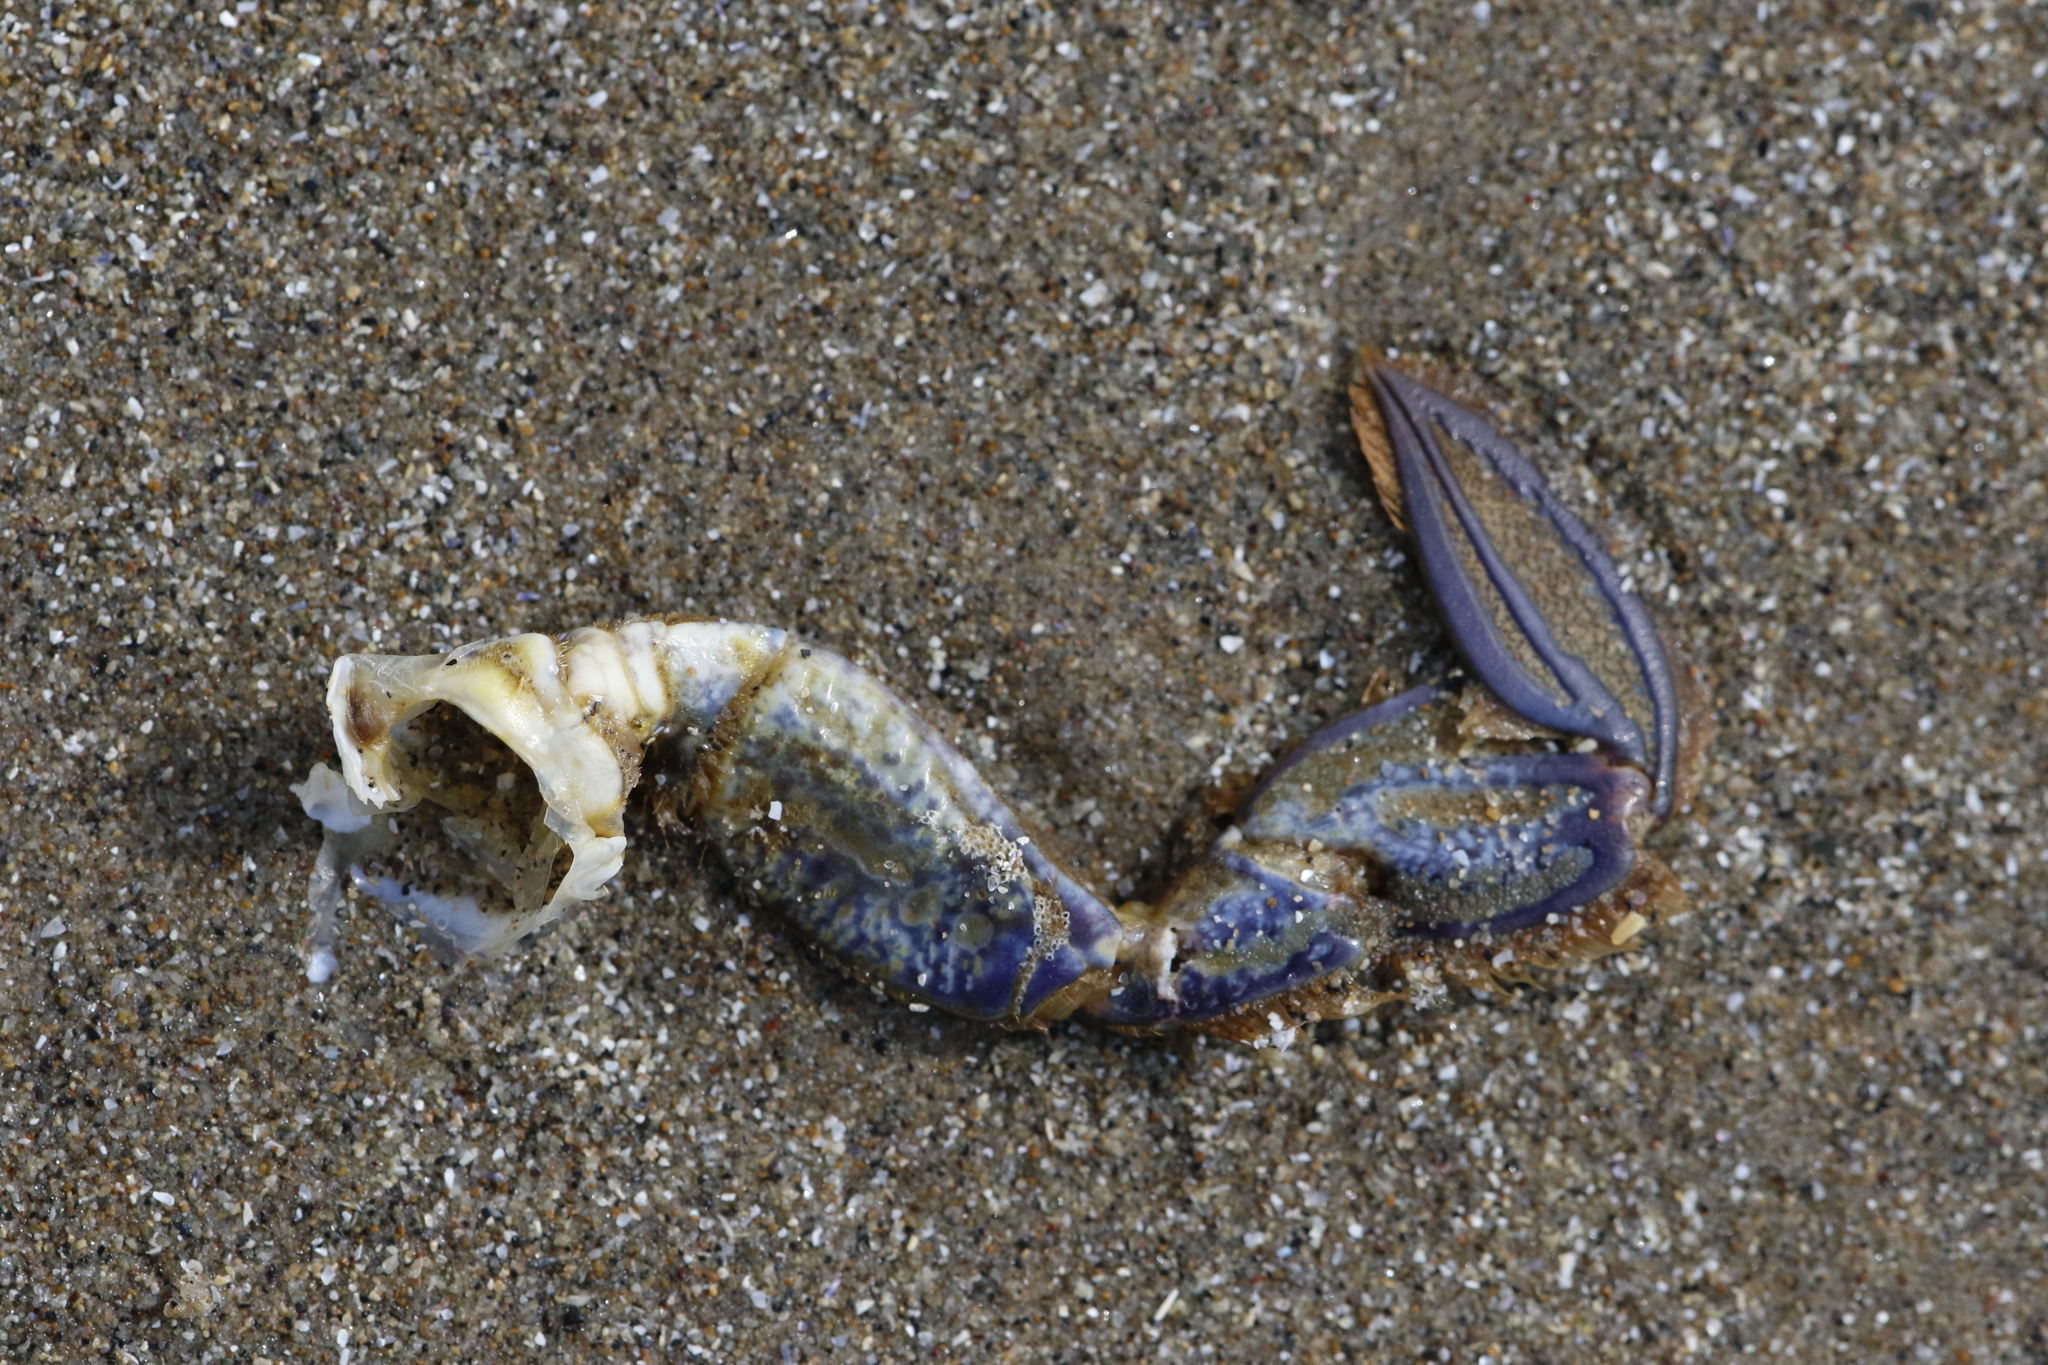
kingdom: Animalia
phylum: Arthropoda
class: Malacostraca
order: Decapoda
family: Polybiidae
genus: Necora
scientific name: Necora puber
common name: Velvet swimming crab
